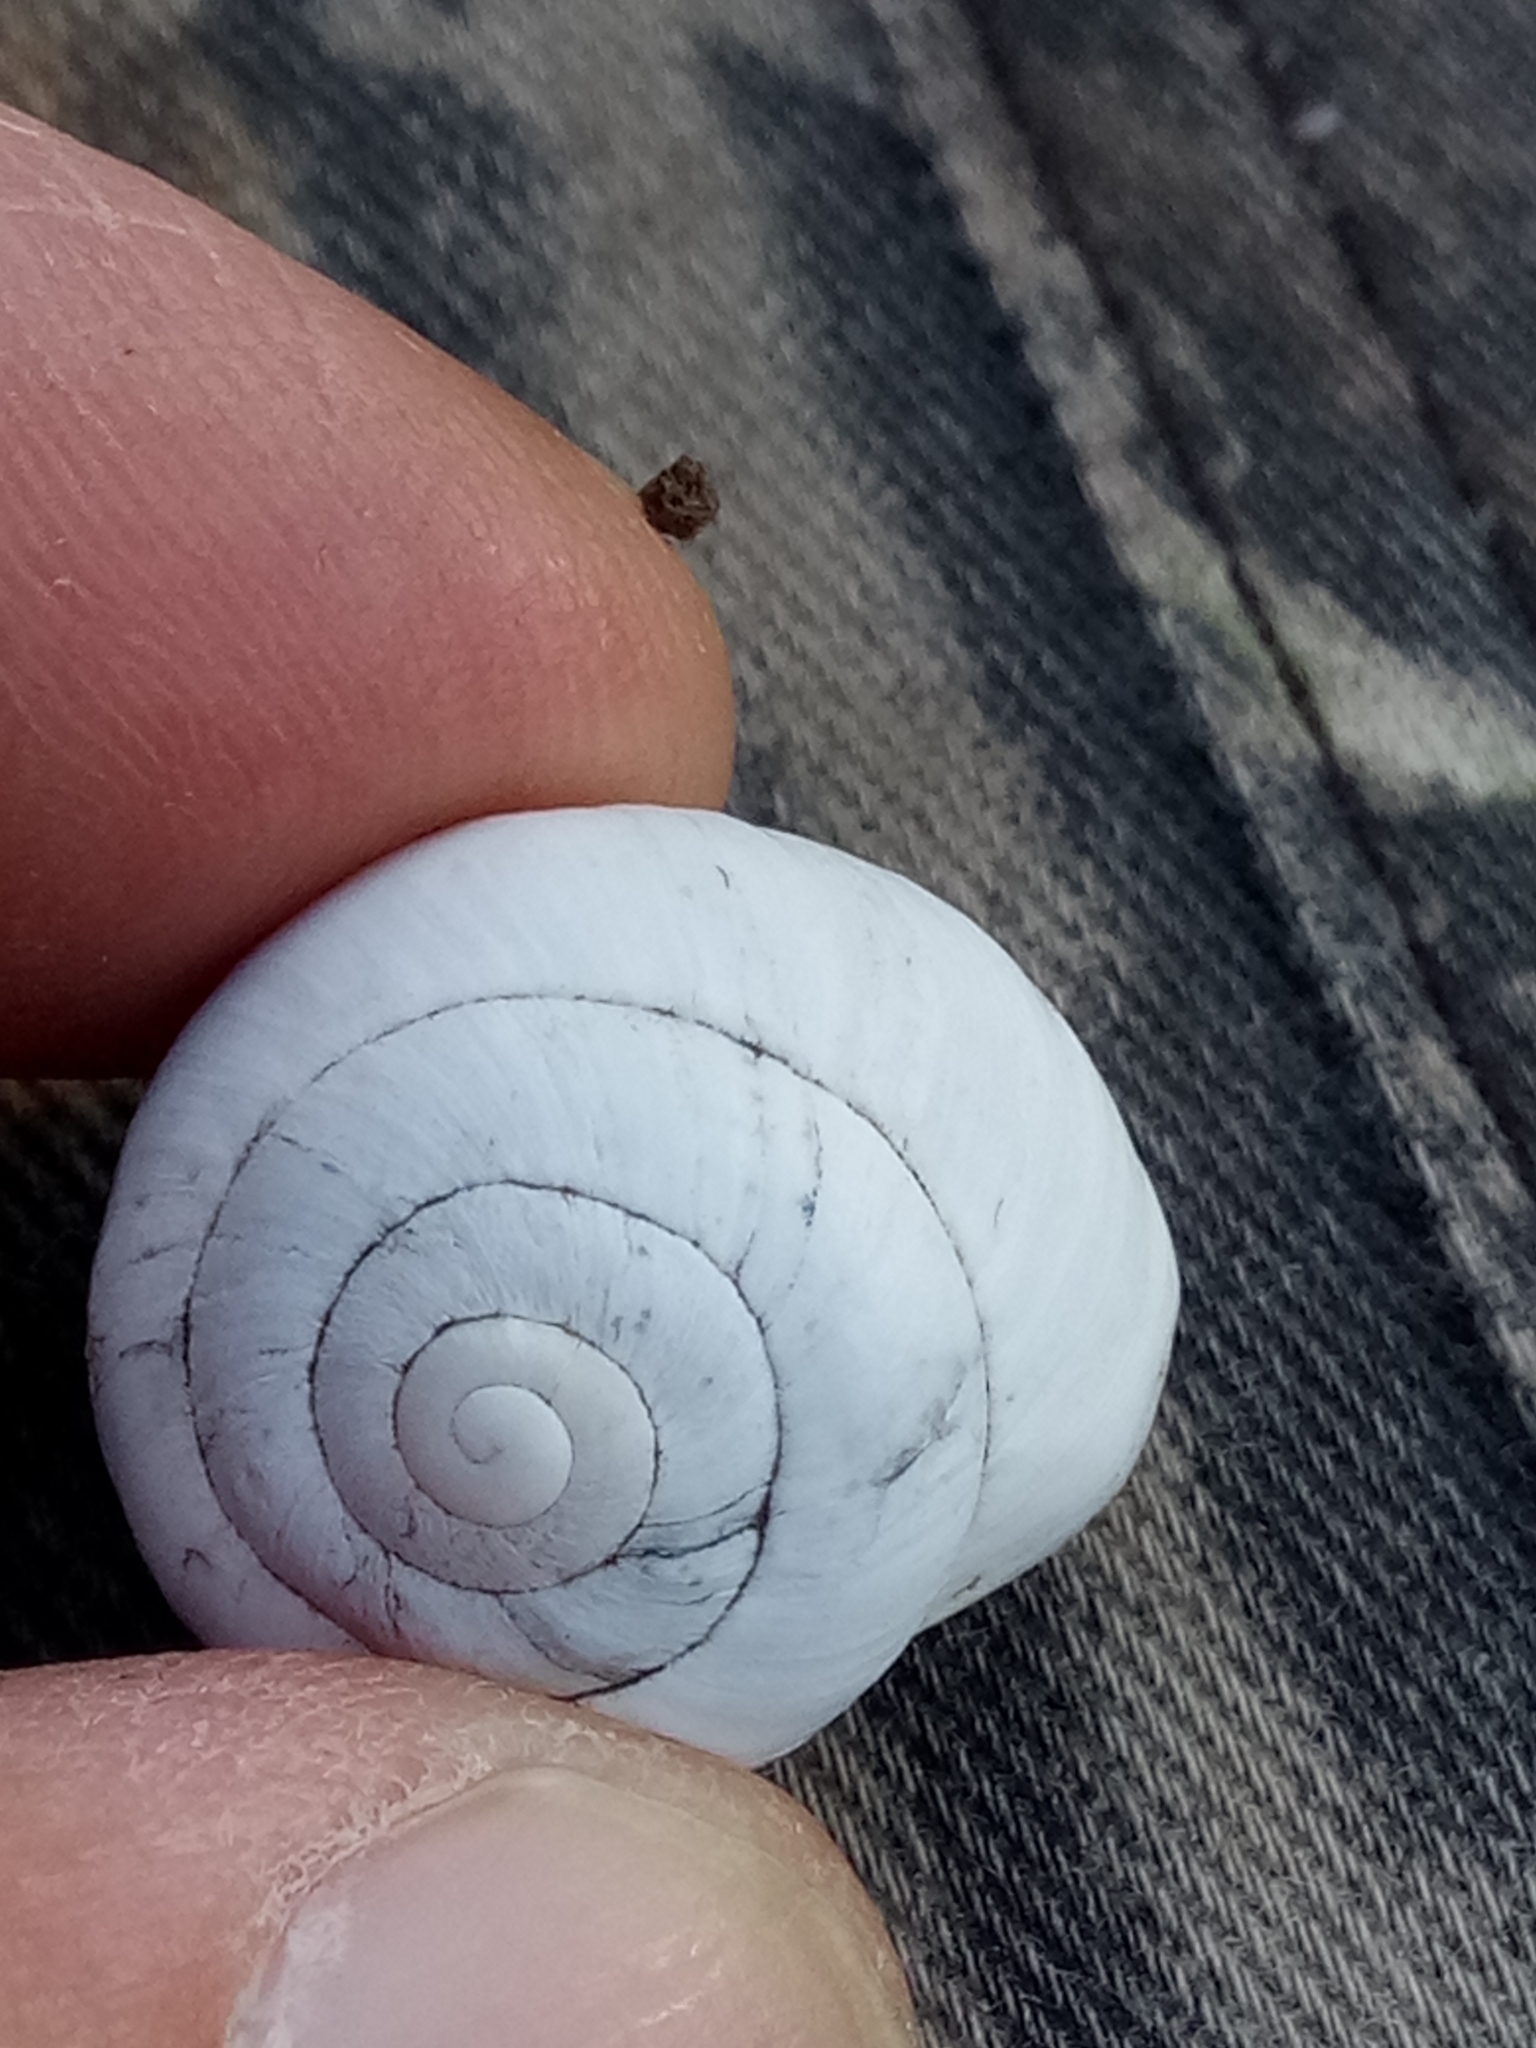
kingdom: Animalia
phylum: Mollusca
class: Gastropoda
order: Stylommatophora
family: Sphincterochilidae
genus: Sphincterochila
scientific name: Sphincterochila candidissima
